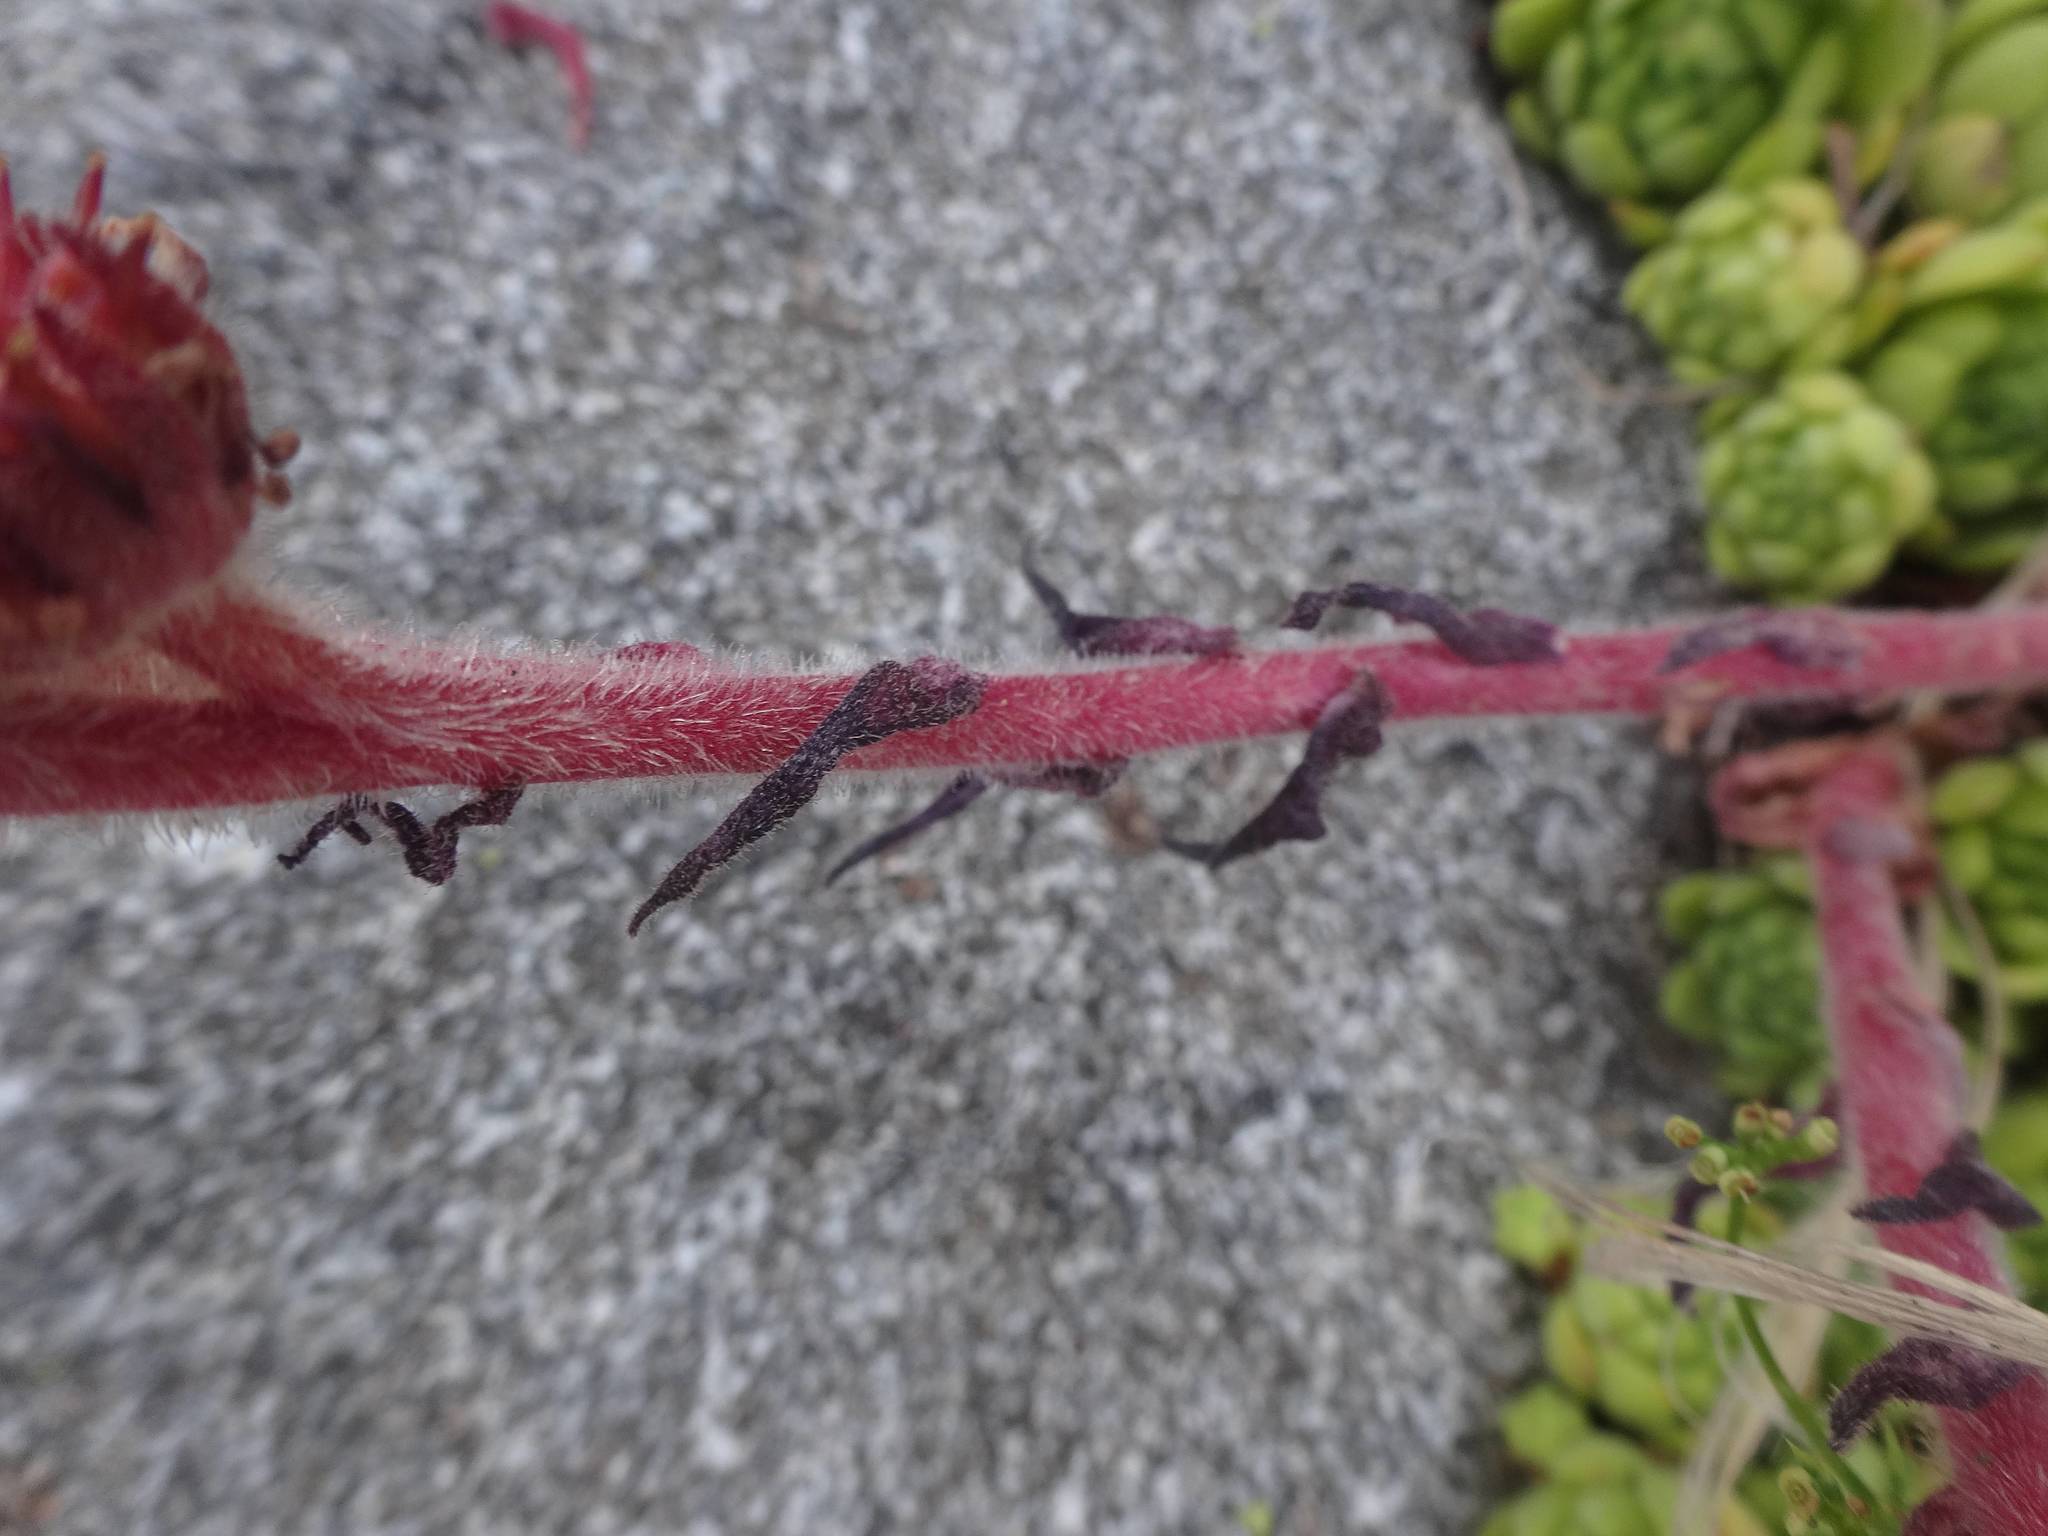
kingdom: Plantae
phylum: Tracheophyta
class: Magnoliopsida
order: Saxifragales
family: Crassulaceae
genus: Sempervivum
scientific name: Sempervivum montanum
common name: Mountain house-leek
